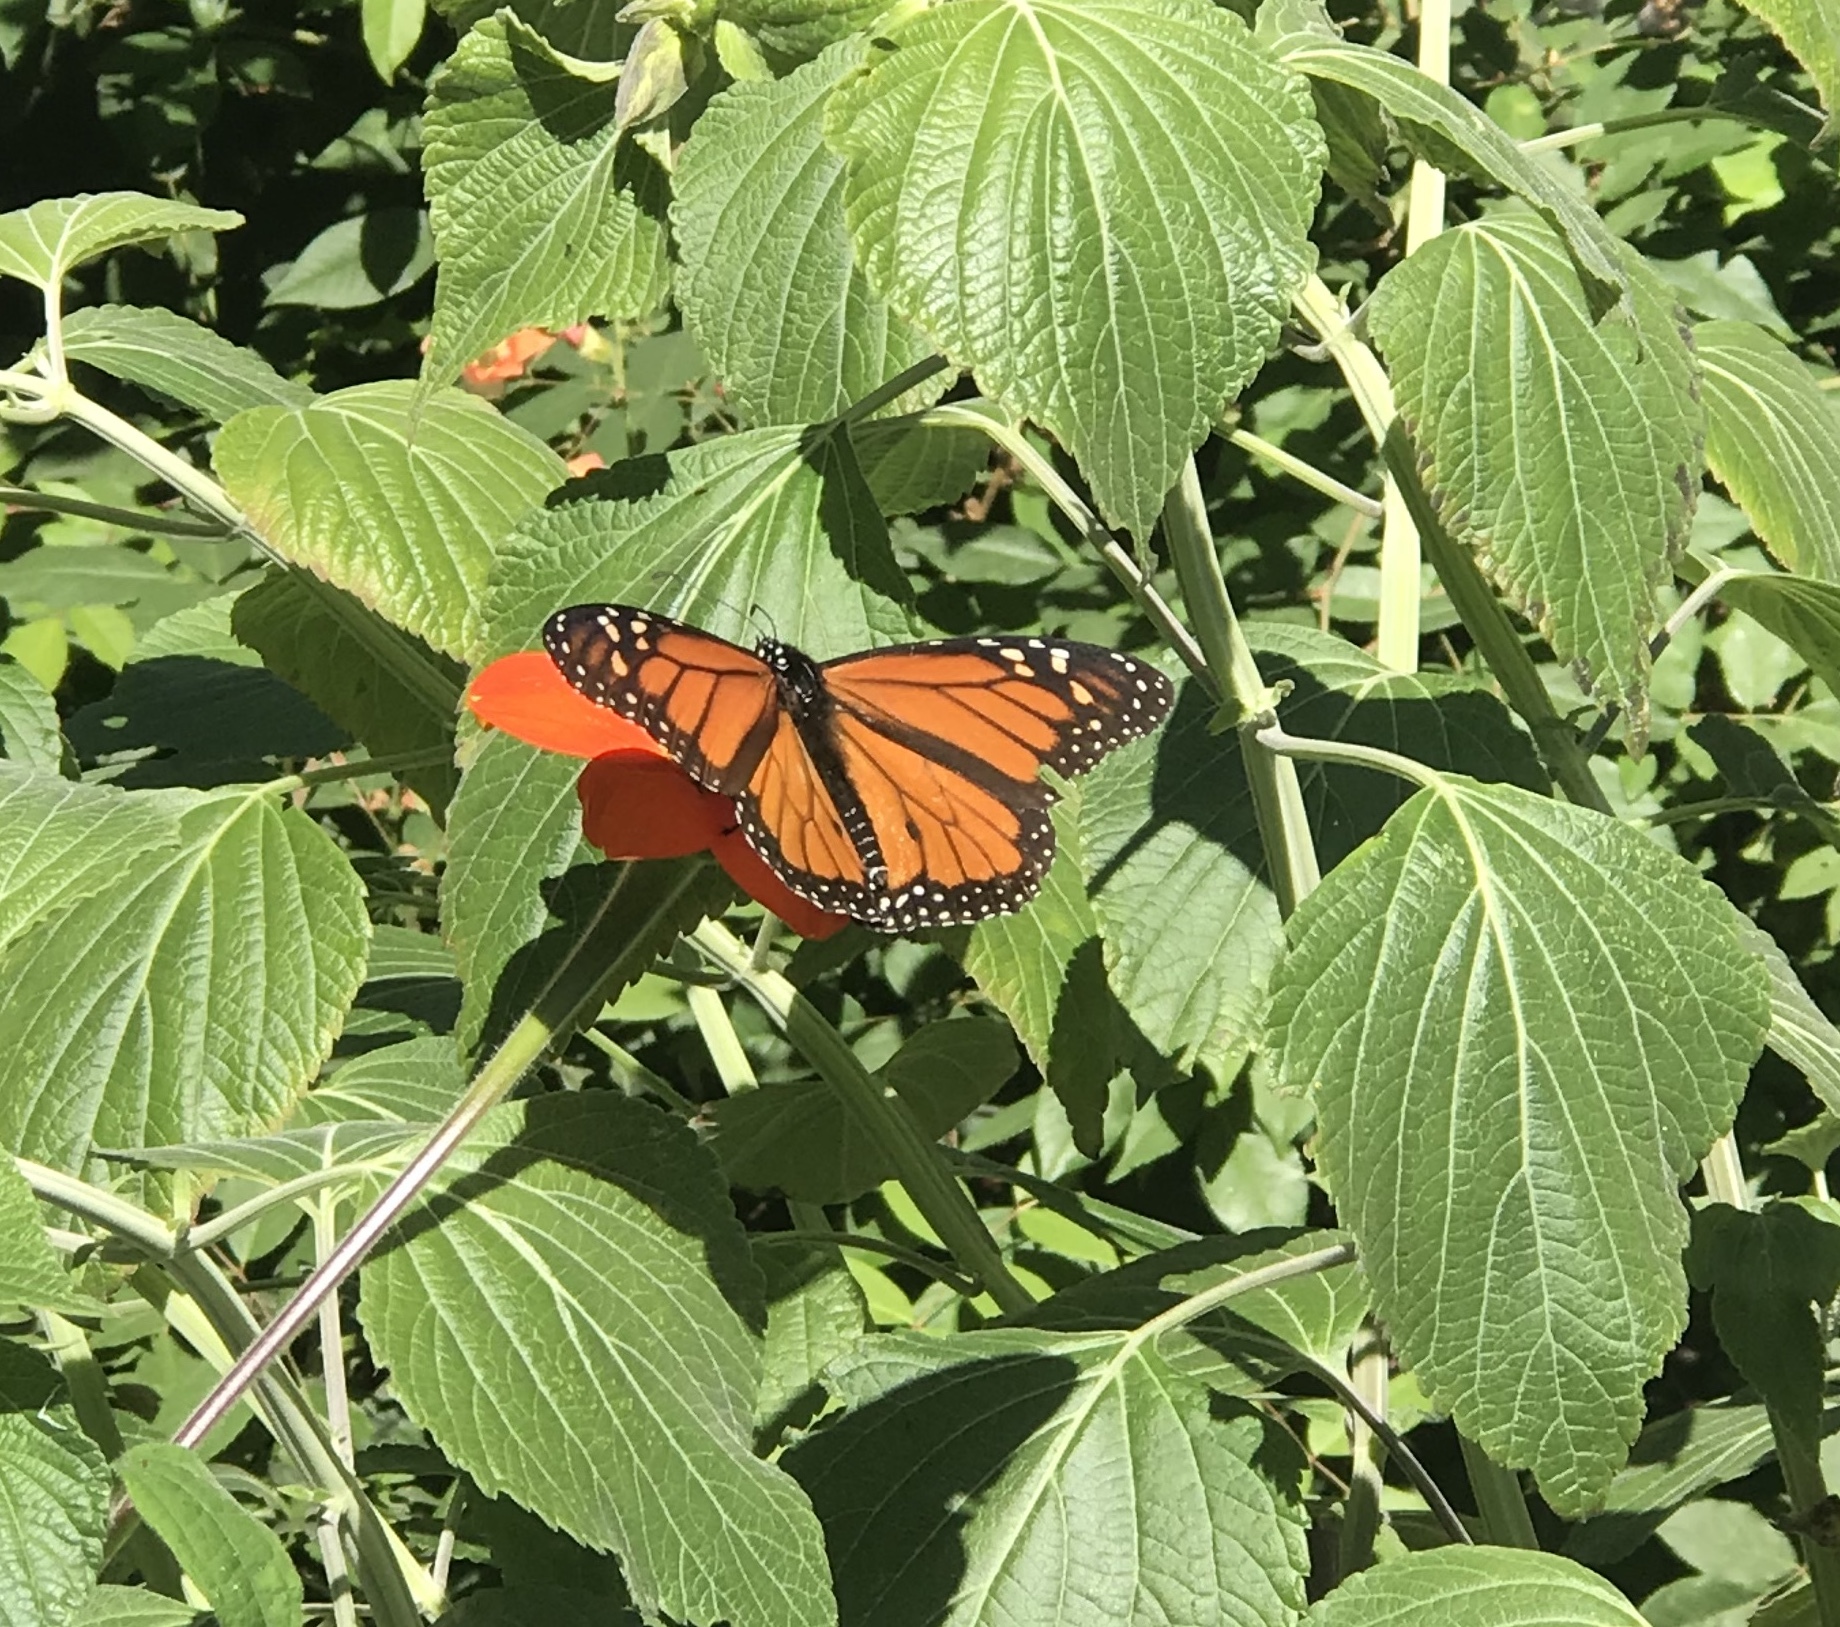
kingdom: Animalia
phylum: Arthropoda
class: Insecta
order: Lepidoptera
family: Nymphalidae
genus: Danaus
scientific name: Danaus plexippus
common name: Monarch
